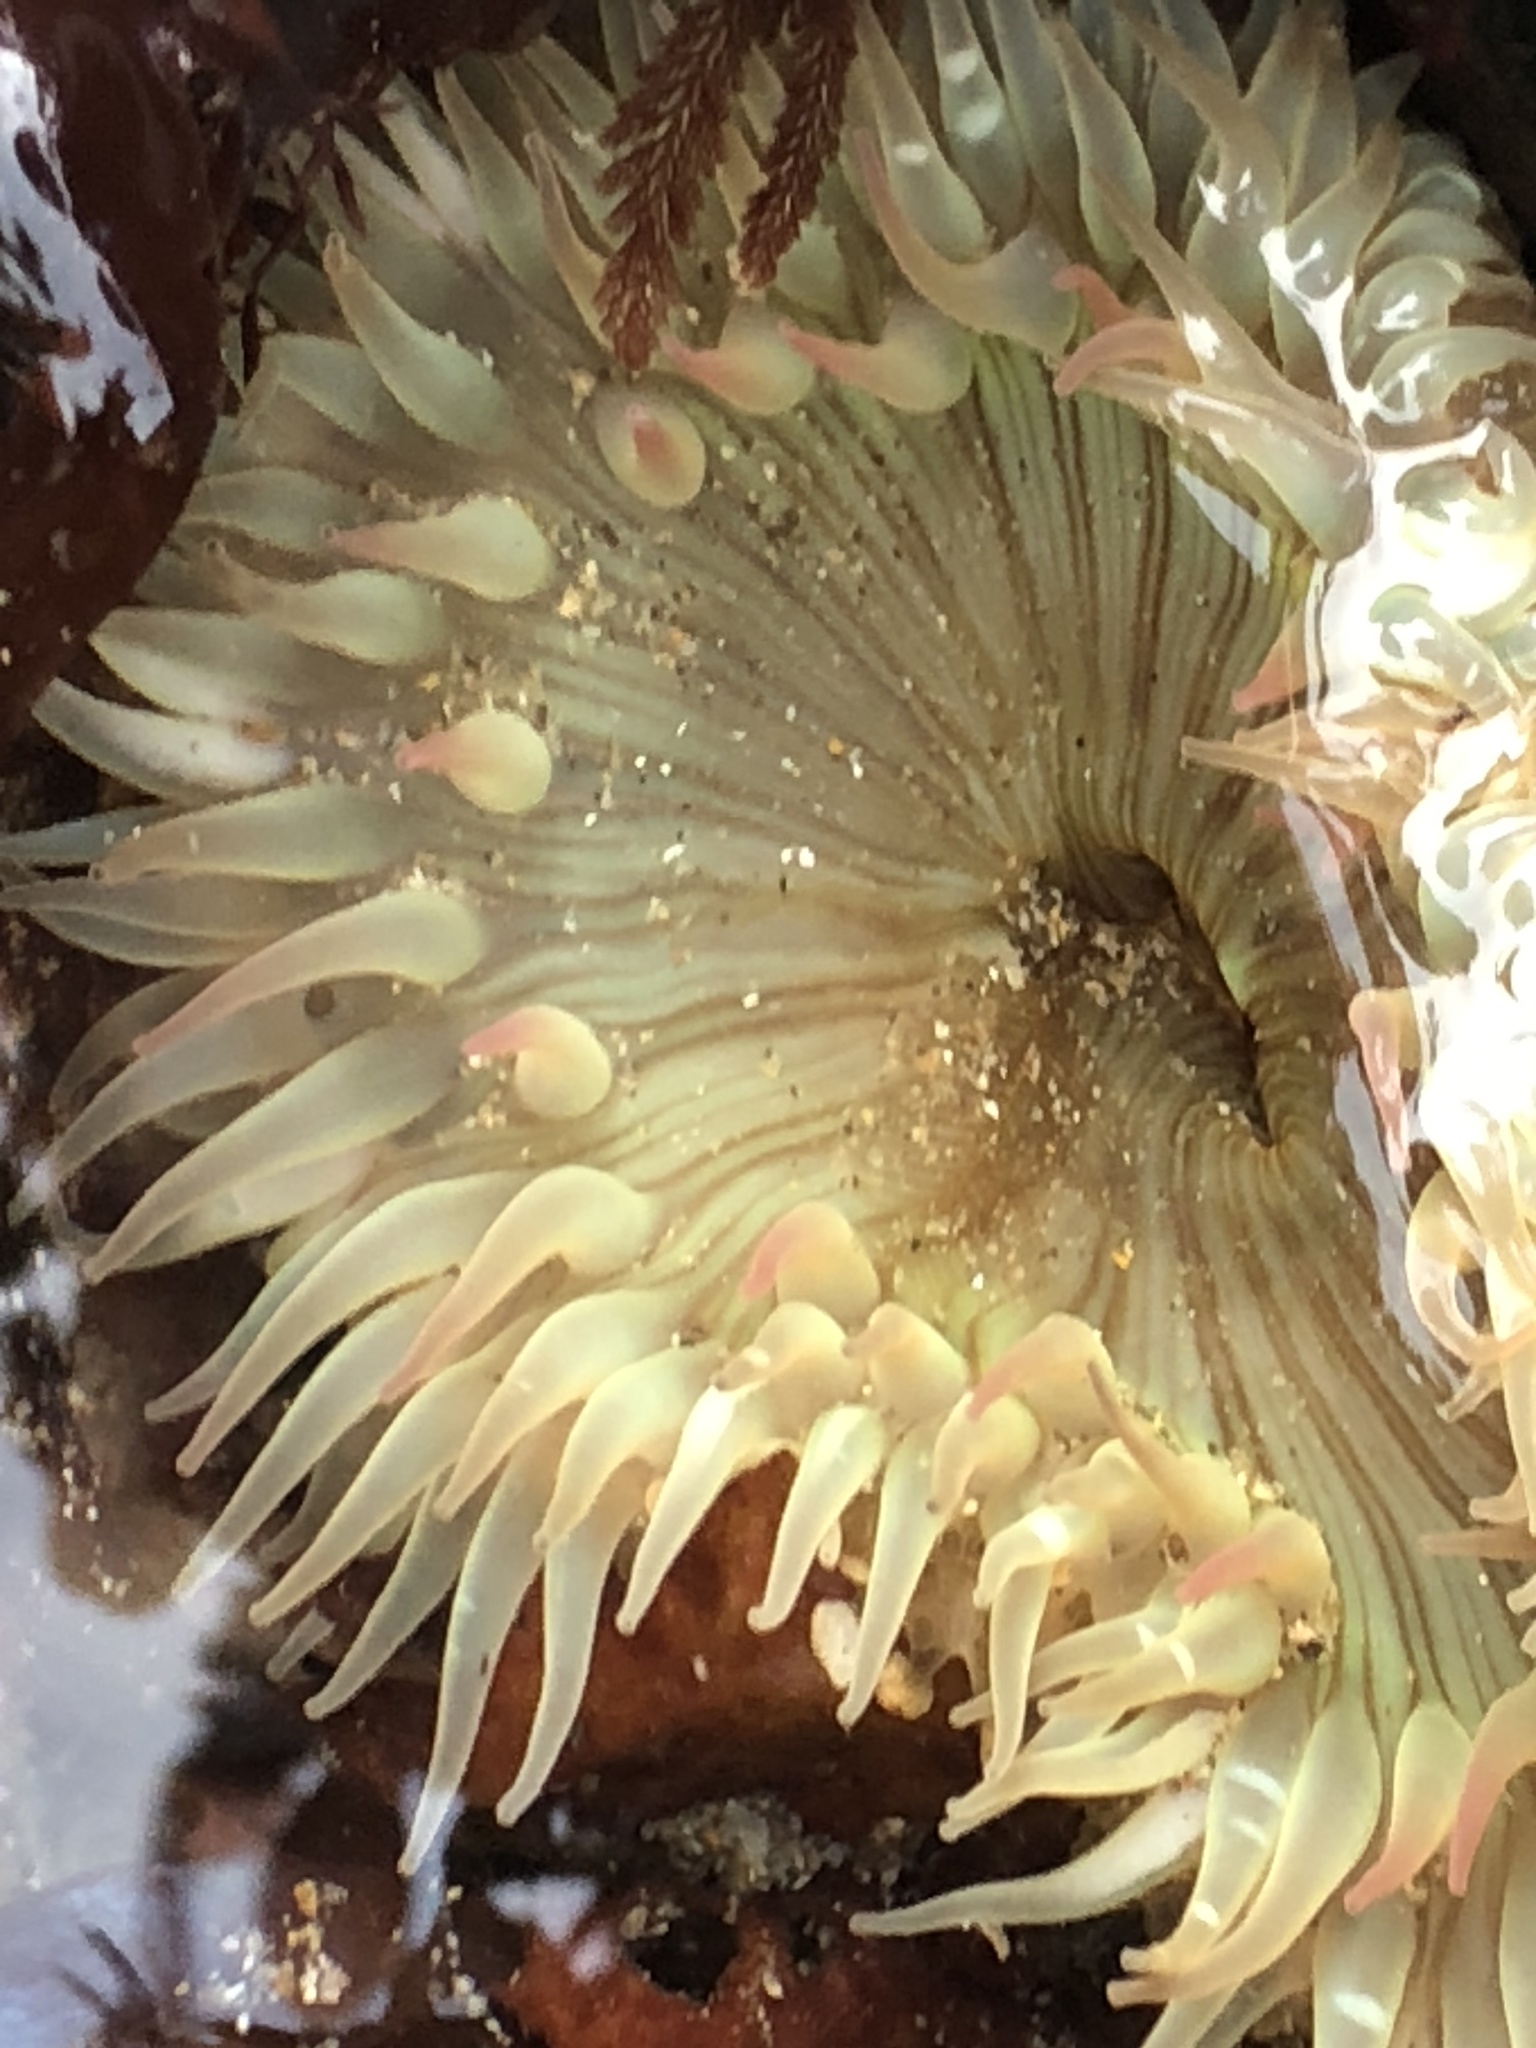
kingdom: Animalia
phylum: Cnidaria
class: Anthozoa
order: Actiniaria
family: Actiniidae
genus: Anthopleura
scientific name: Anthopleura sola
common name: Sun anemone
